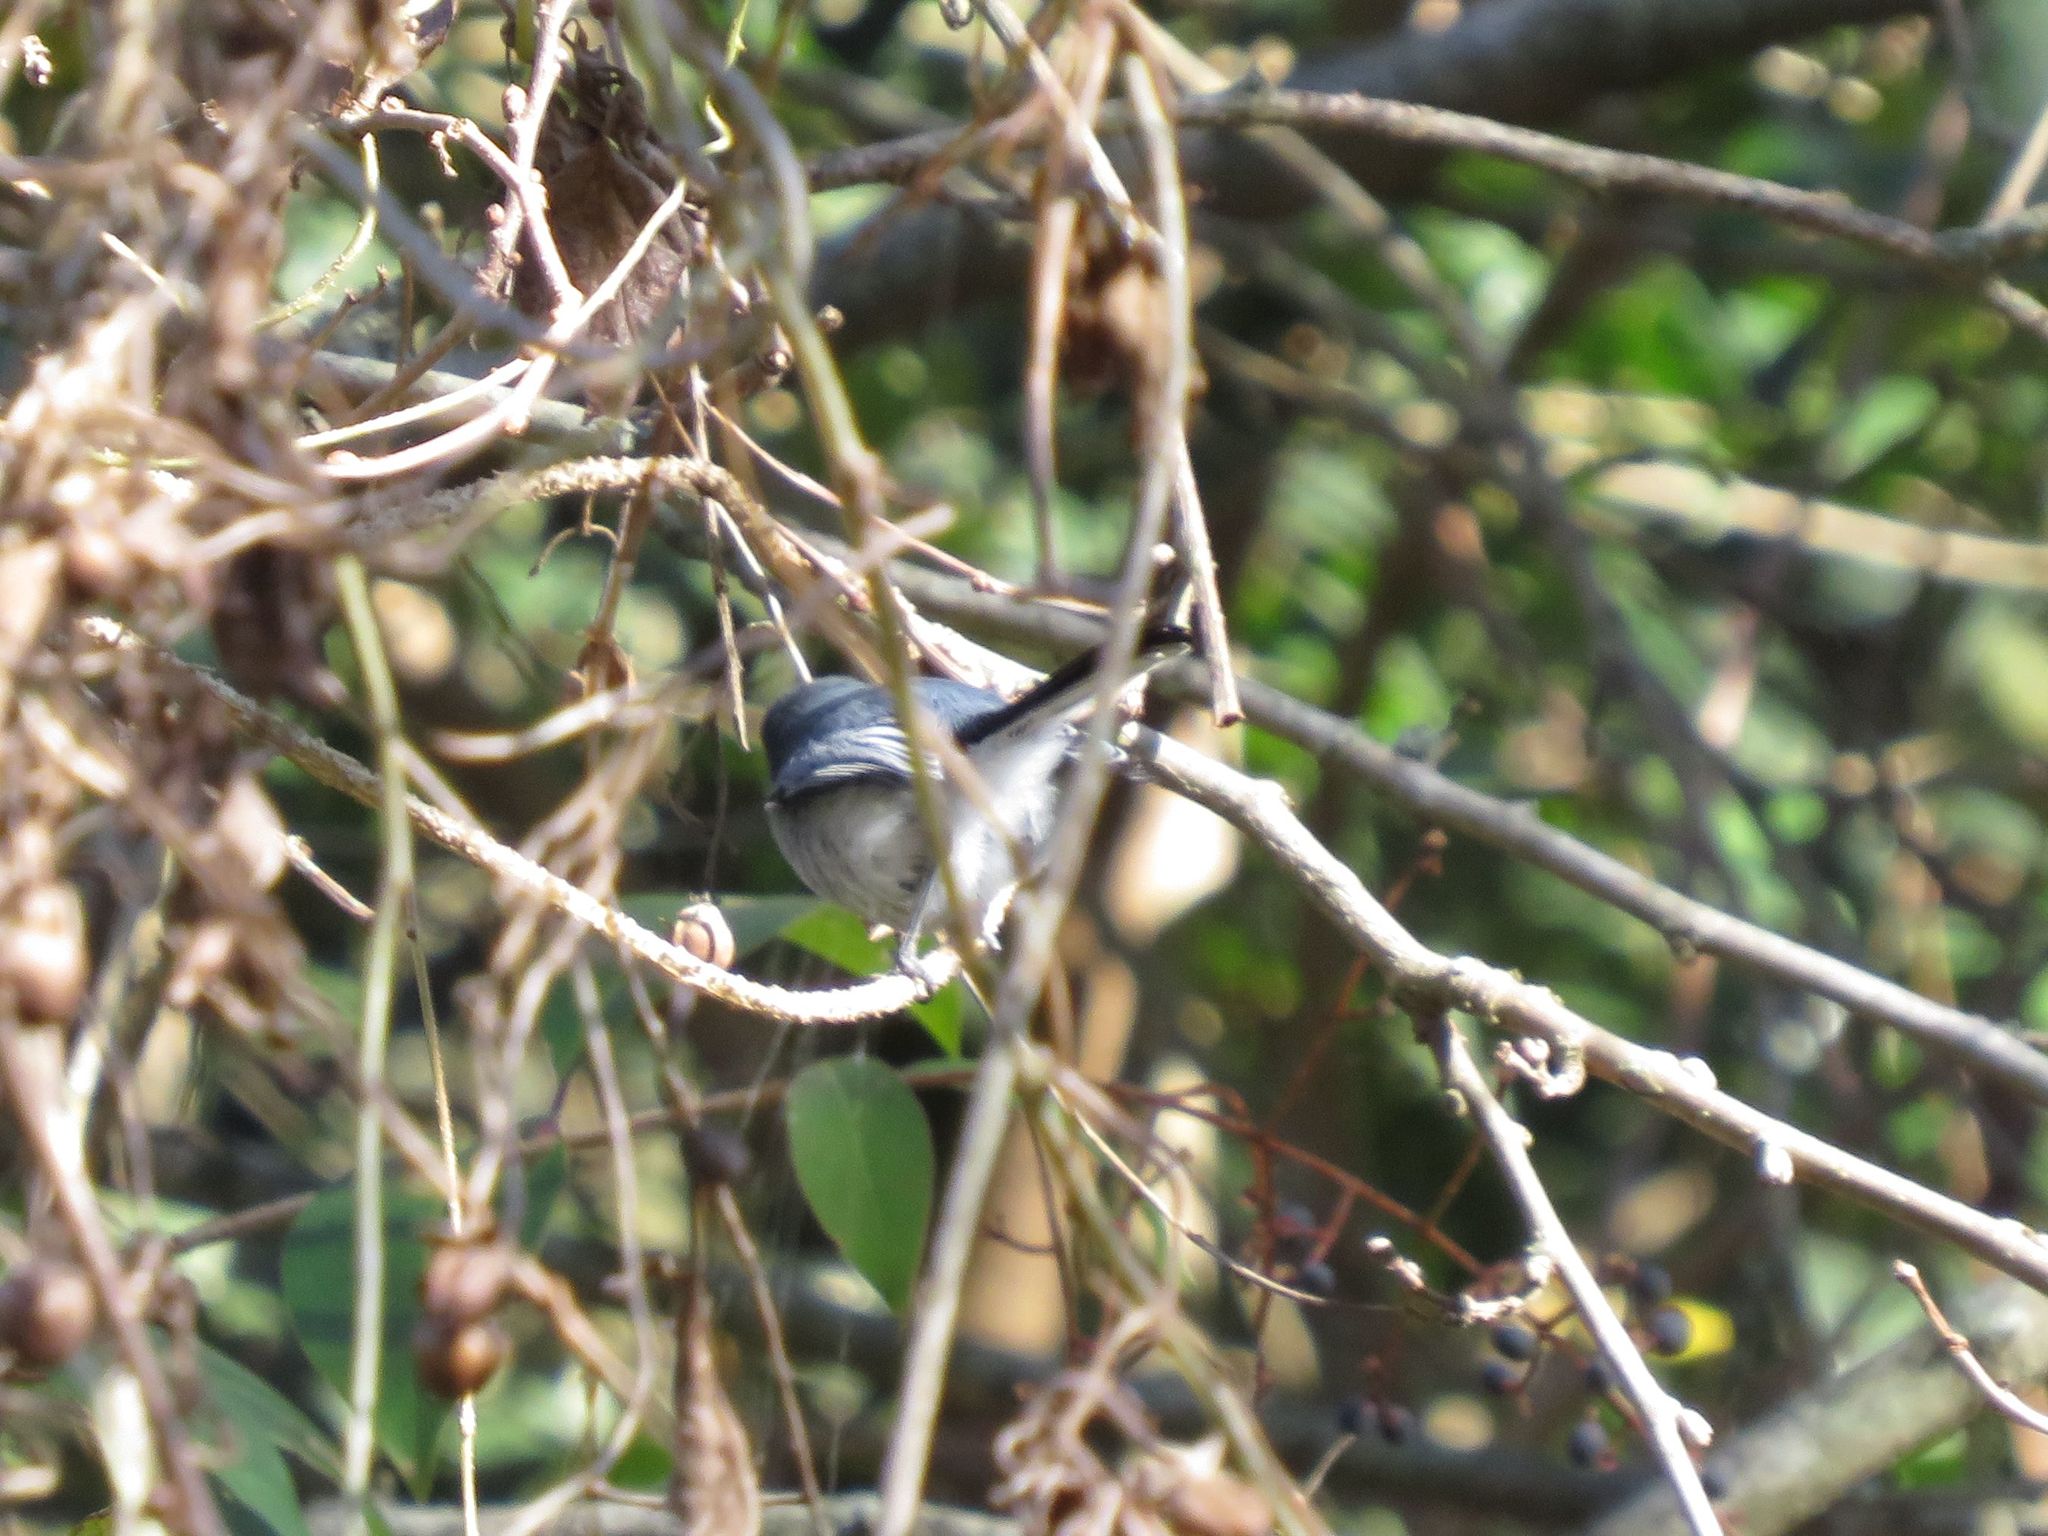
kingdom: Animalia
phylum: Chordata
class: Aves
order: Passeriformes
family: Polioptilidae
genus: Polioptila
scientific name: Polioptila dumicola
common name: Masked gnatcatcher
